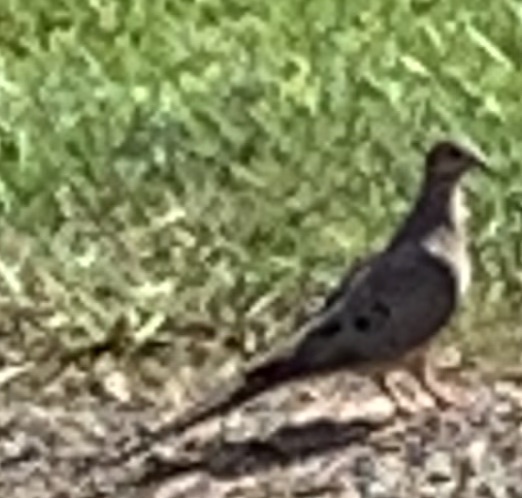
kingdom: Animalia
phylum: Chordata
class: Aves
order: Columbiformes
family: Columbidae
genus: Zenaida
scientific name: Zenaida macroura
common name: Mourning dove
